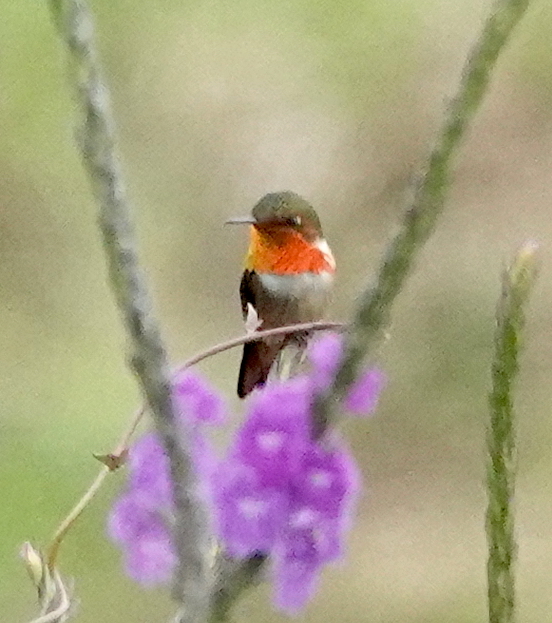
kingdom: Animalia
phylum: Chordata
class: Aves
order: Apodiformes
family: Trochilidae
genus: Selasphorus
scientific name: Selasphorus scintilla
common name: Scintillant hummingbird
